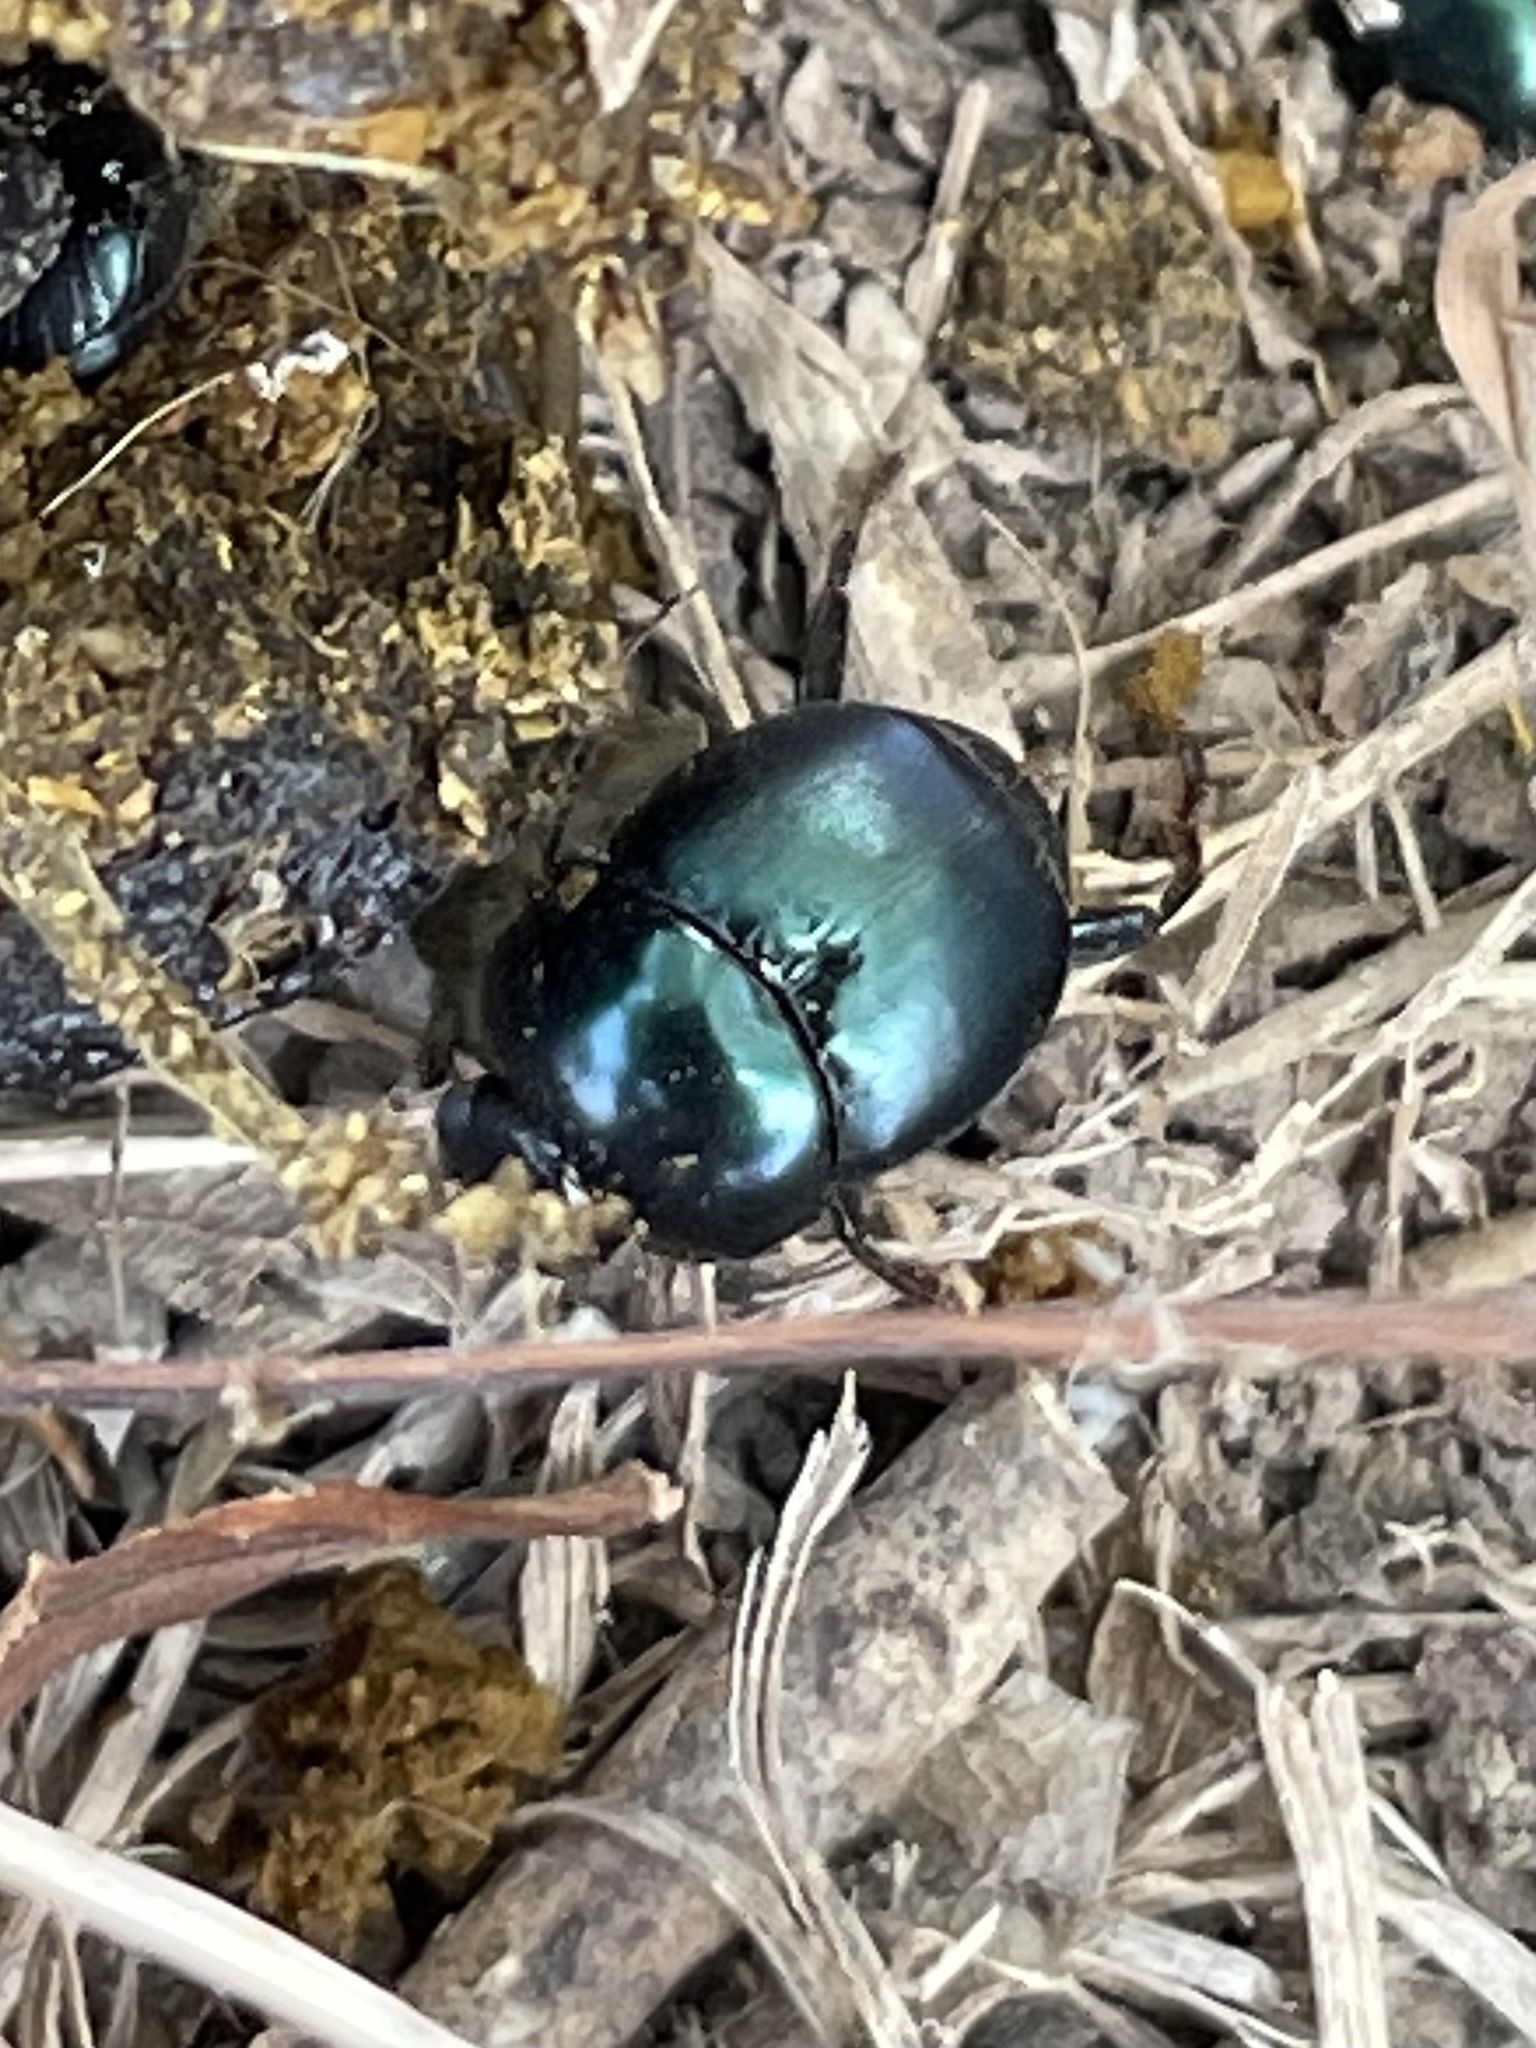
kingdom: Animalia
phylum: Arthropoda
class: Insecta
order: Coleoptera
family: Scarabaeidae
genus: Canthon
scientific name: Canthon cyanellus
